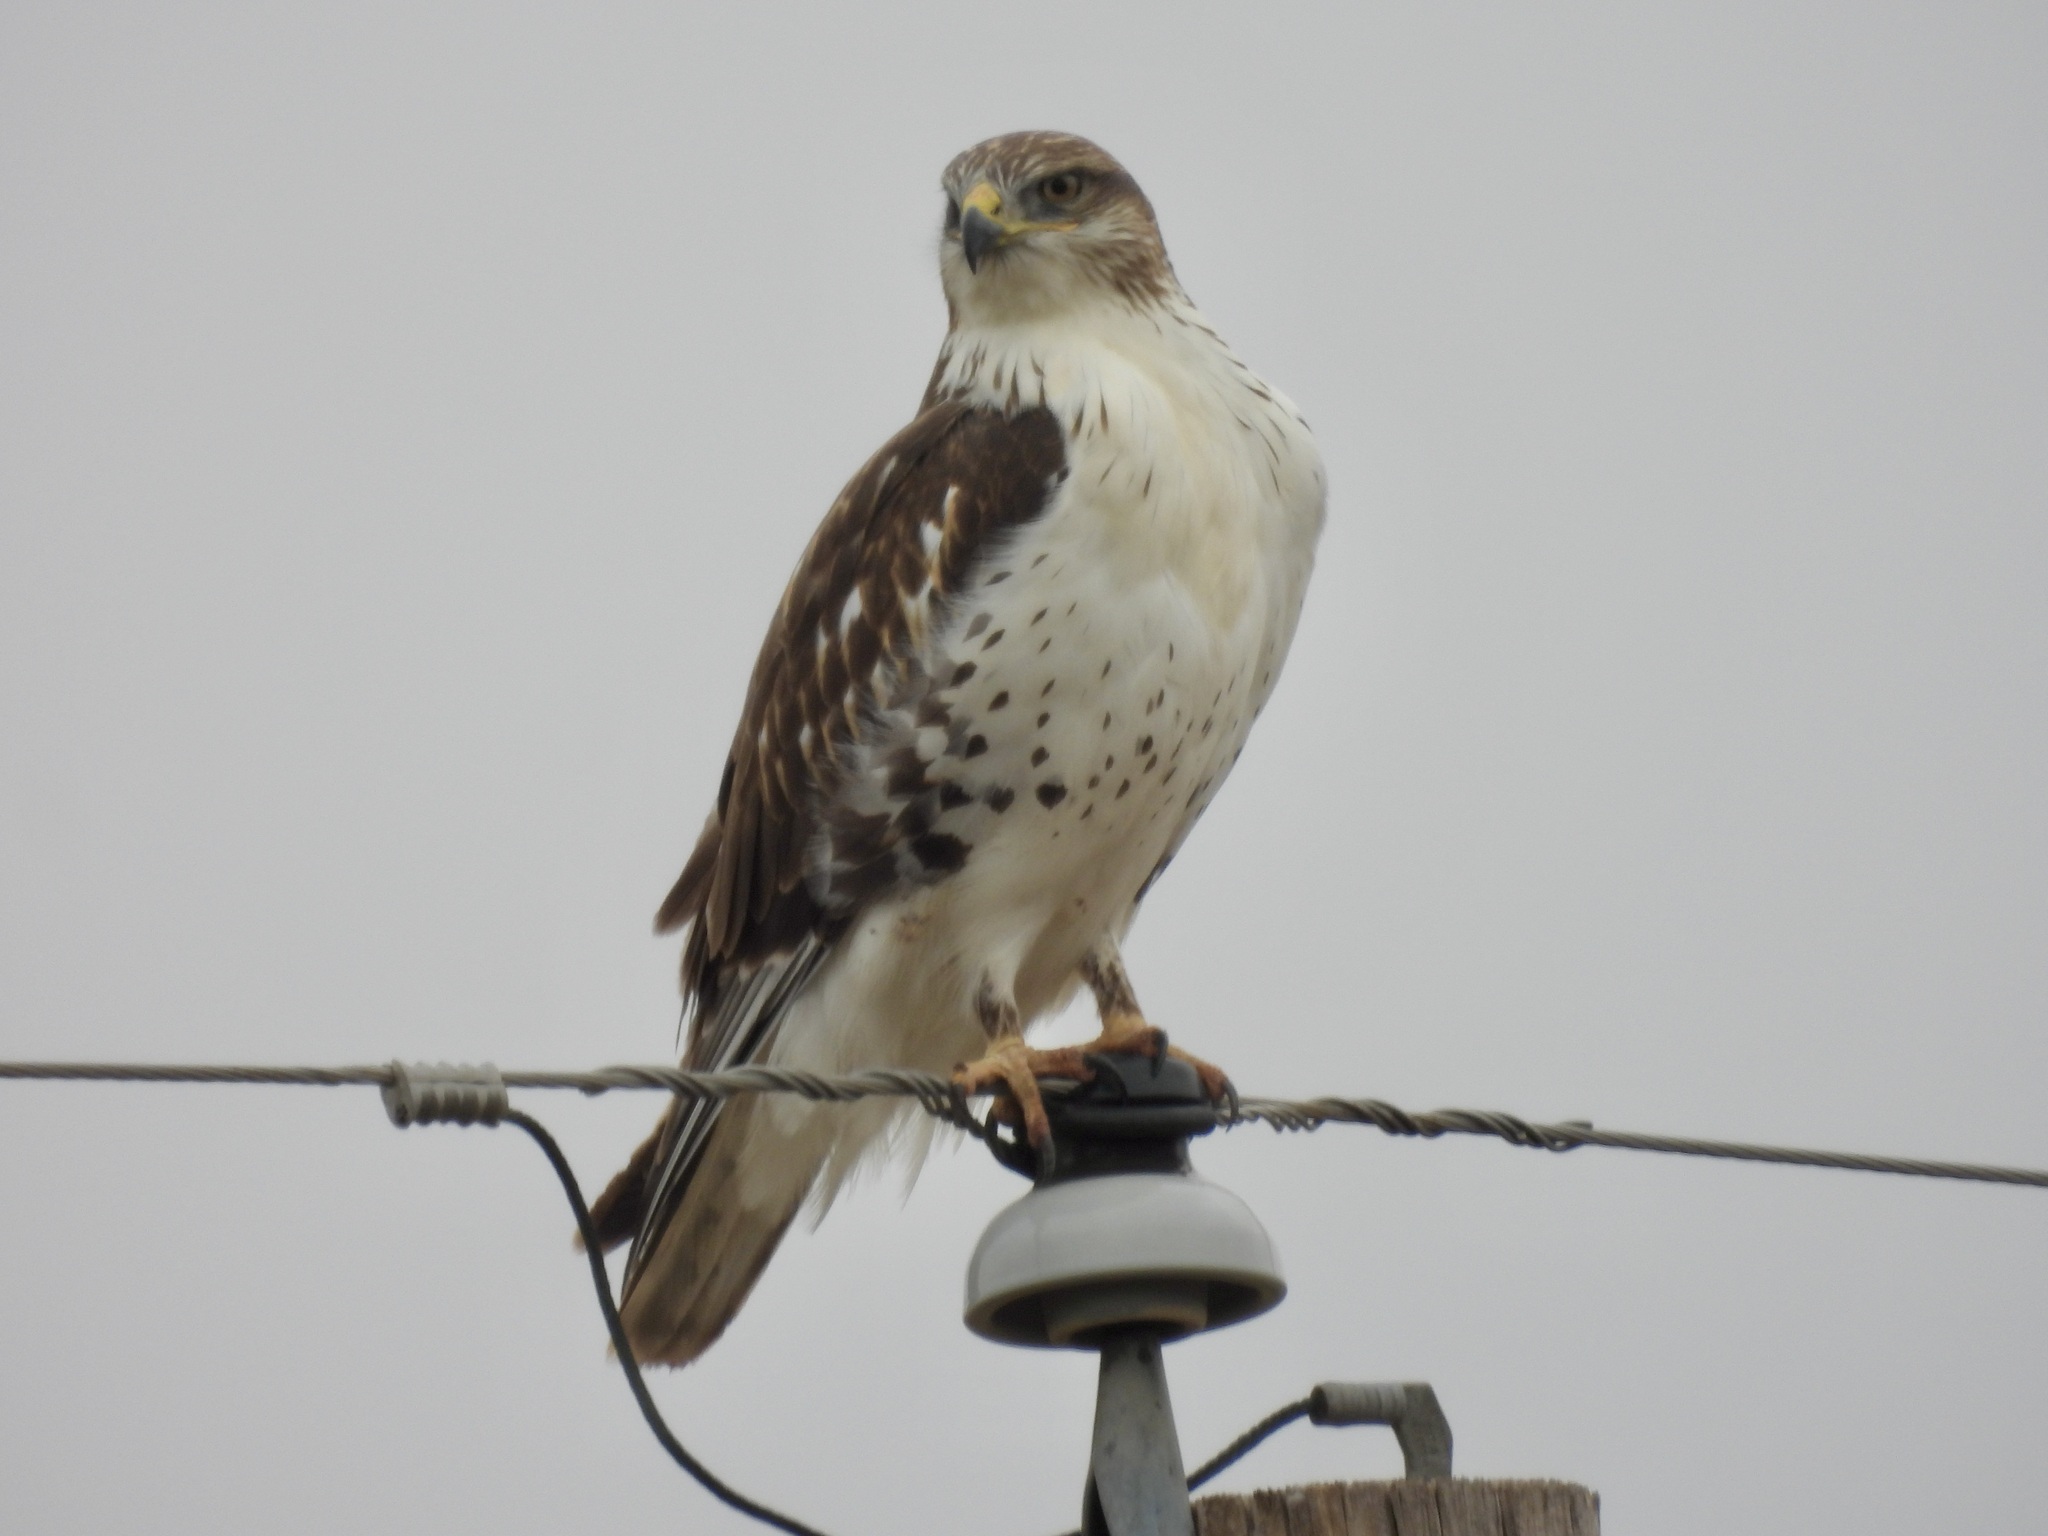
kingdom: Animalia
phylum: Chordata
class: Aves
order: Accipitriformes
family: Accipitridae
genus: Buteo
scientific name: Buteo regalis
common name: Ferruginous hawk
